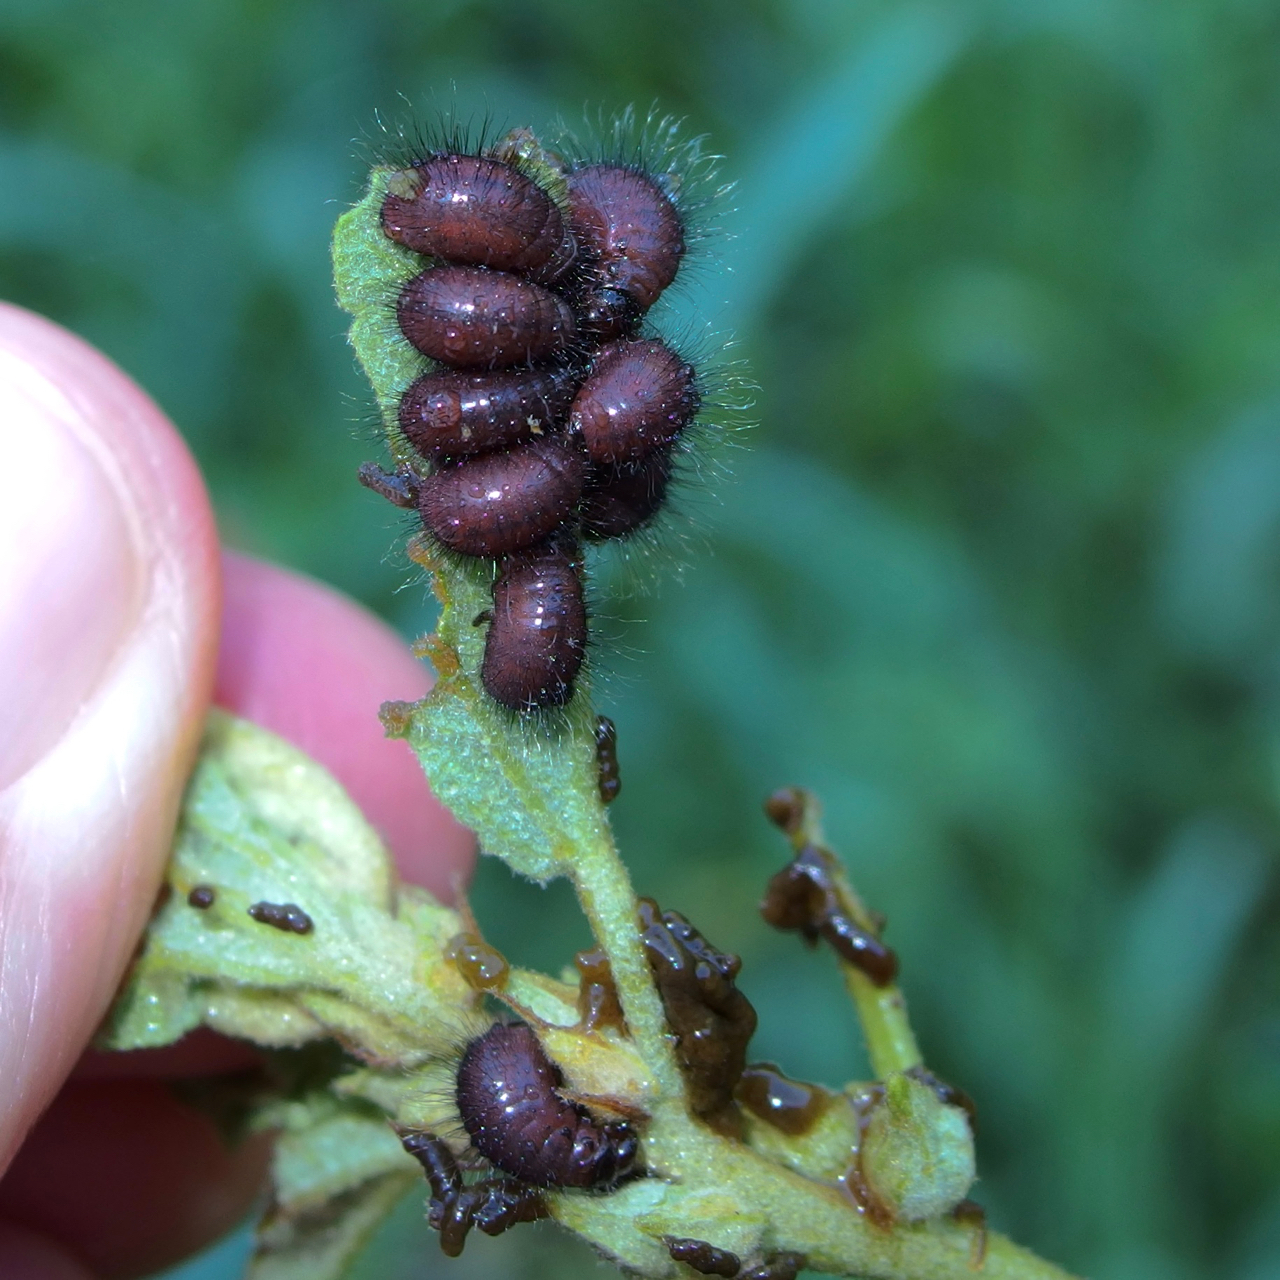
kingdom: Animalia
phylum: Arthropoda
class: Insecta
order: Coleoptera
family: Chrysomelidae
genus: Calligrapha
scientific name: Calligrapha serpentina
